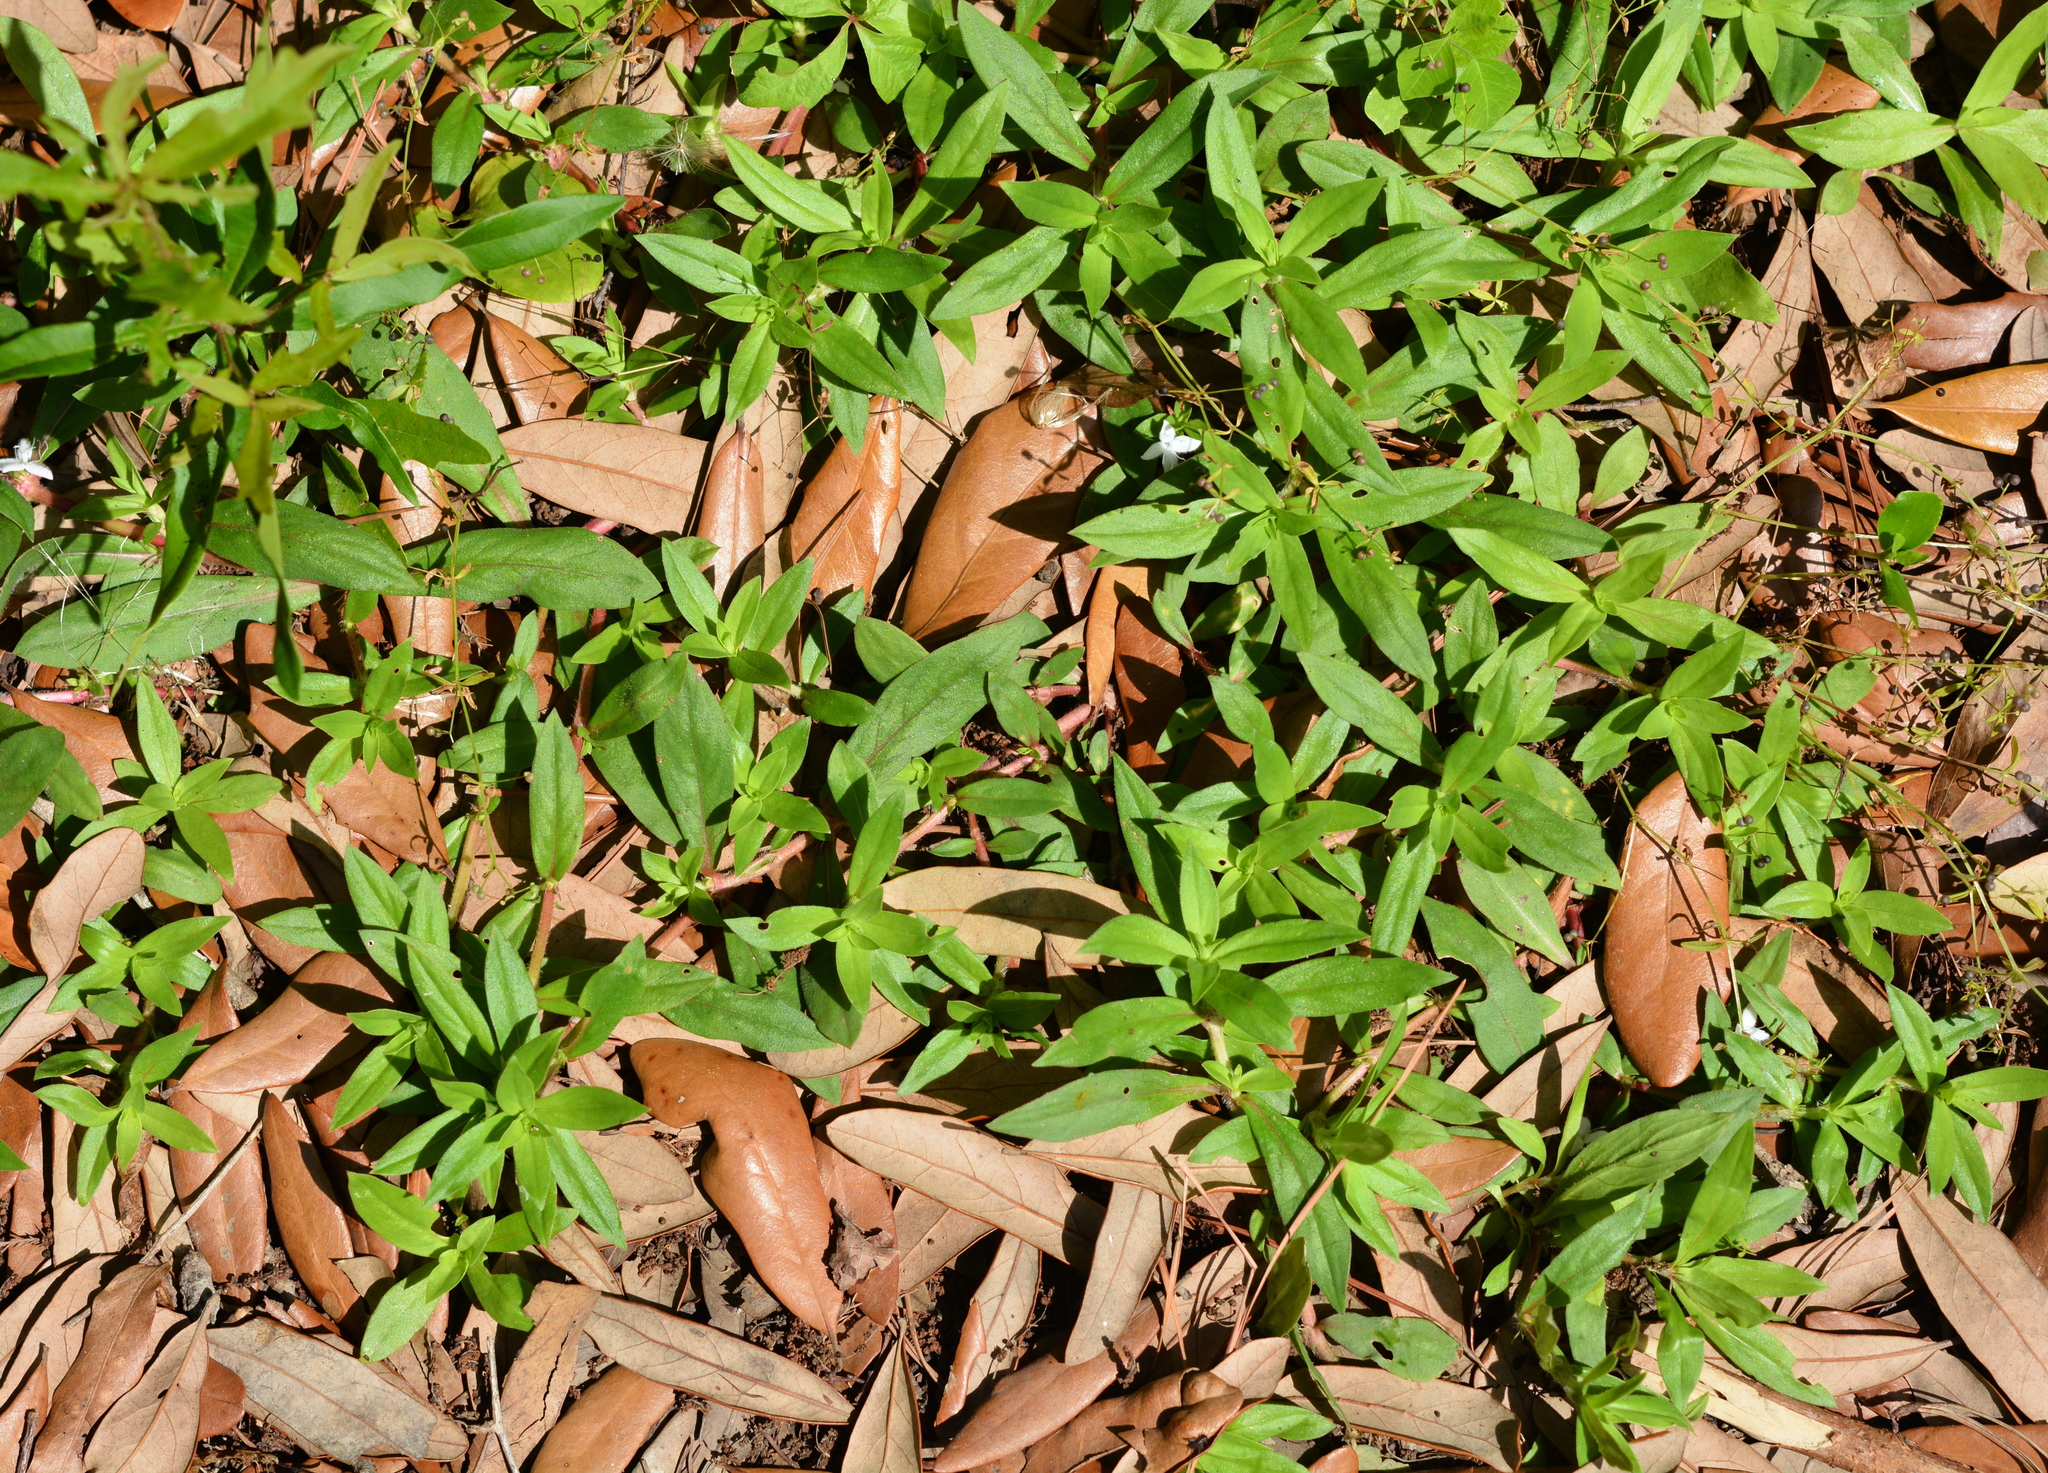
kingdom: Plantae
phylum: Tracheophyta
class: Magnoliopsida
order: Gentianales
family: Rubiaceae
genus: Diodia
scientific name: Diodia virginiana
